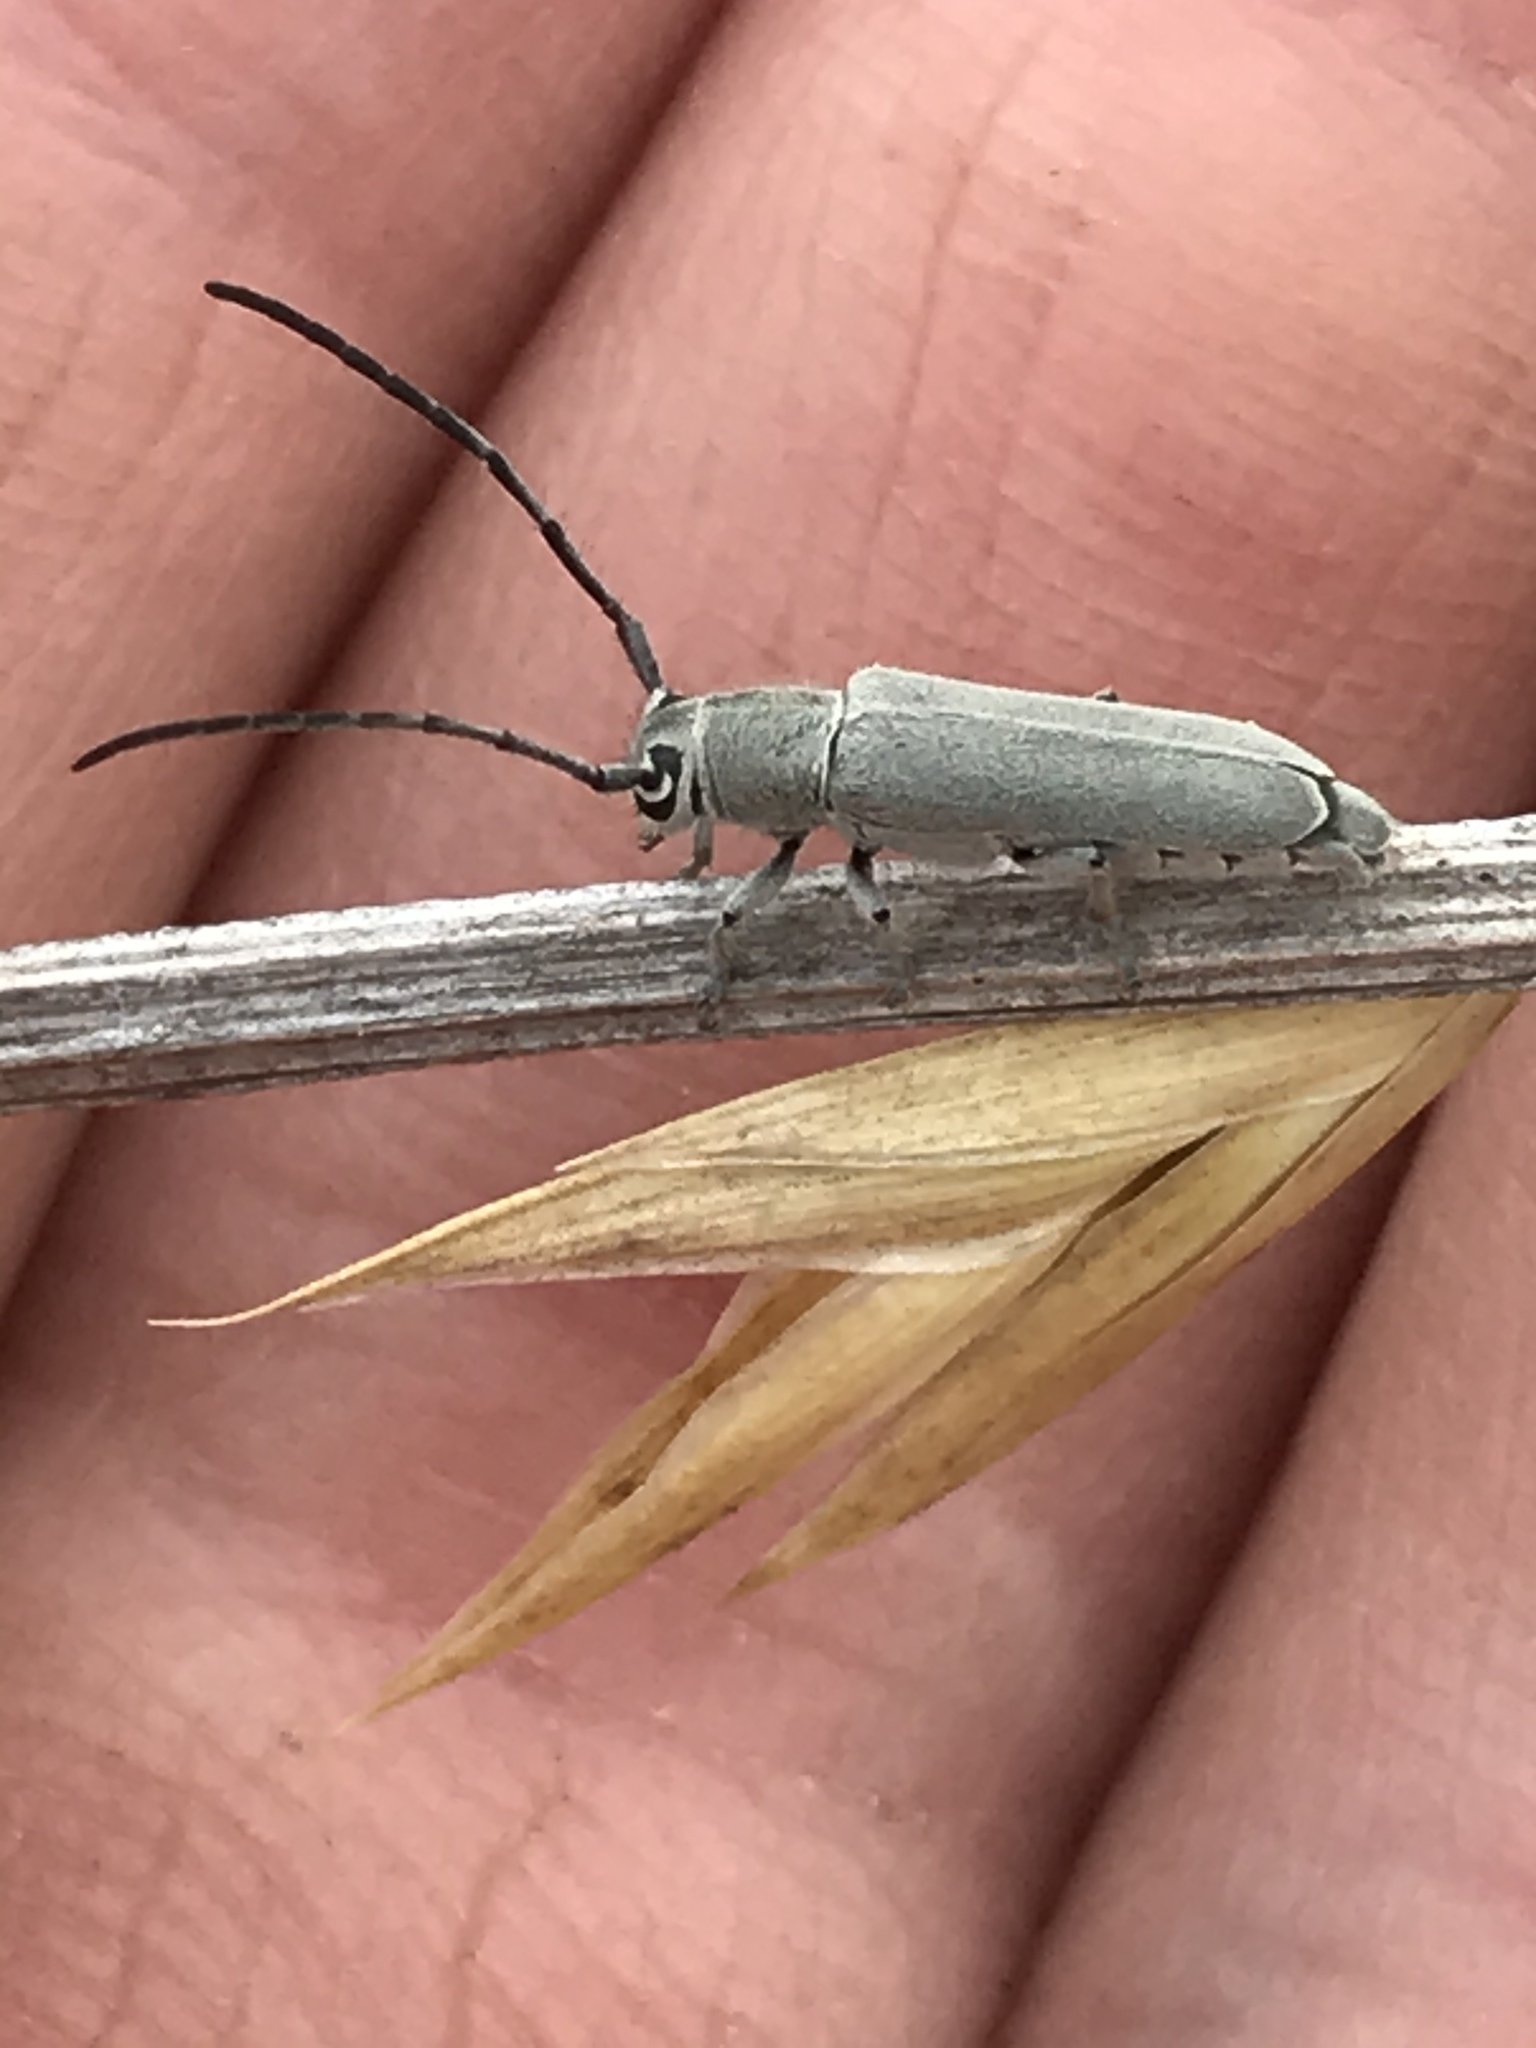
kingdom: Animalia
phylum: Arthropoda
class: Insecta
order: Coleoptera
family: Cerambycidae
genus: Mecas
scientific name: Mecas cineracea
